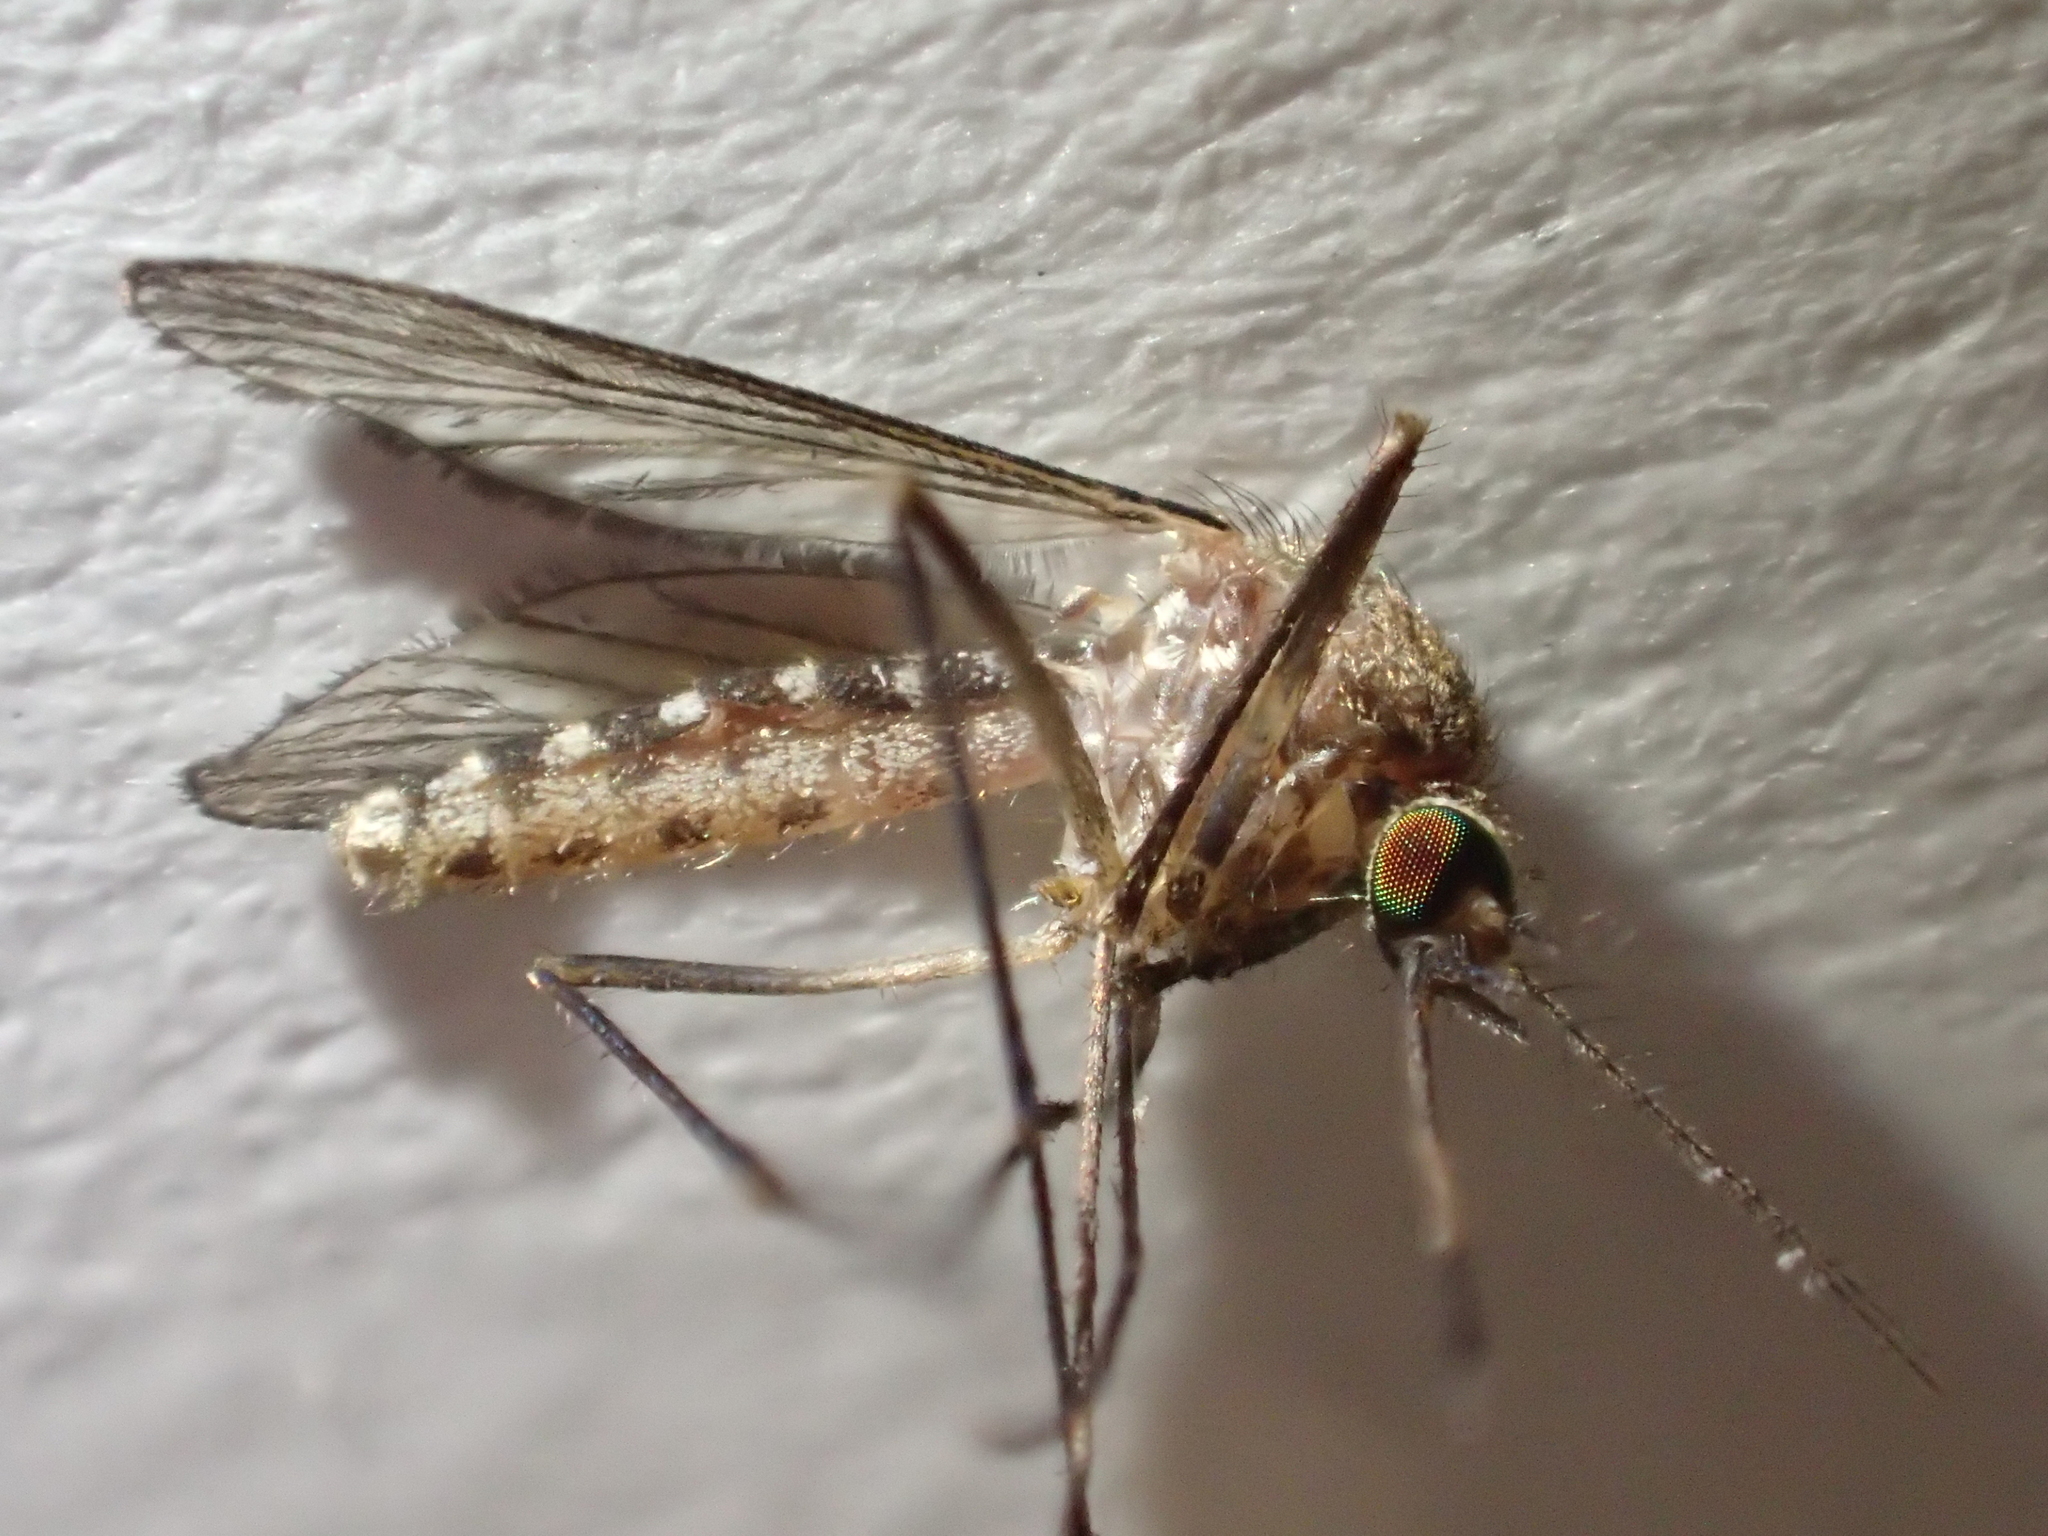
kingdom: Animalia
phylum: Arthropoda
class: Insecta
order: Diptera
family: Culicidae
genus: Culex
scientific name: Culex pervigilans
